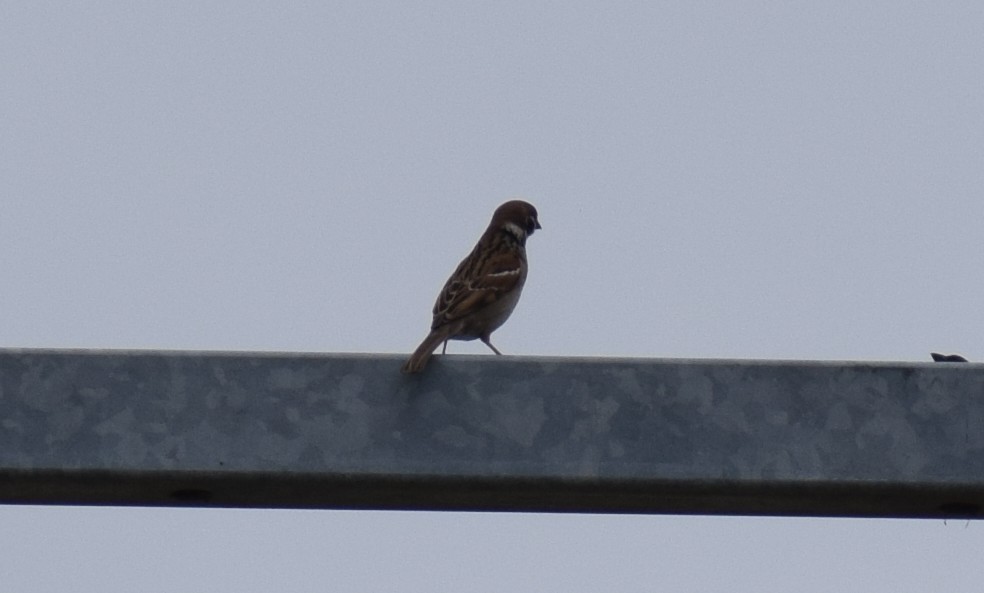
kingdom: Animalia
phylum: Chordata
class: Aves
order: Passeriformes
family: Passeridae
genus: Passer
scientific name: Passer montanus
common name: Eurasian tree sparrow
